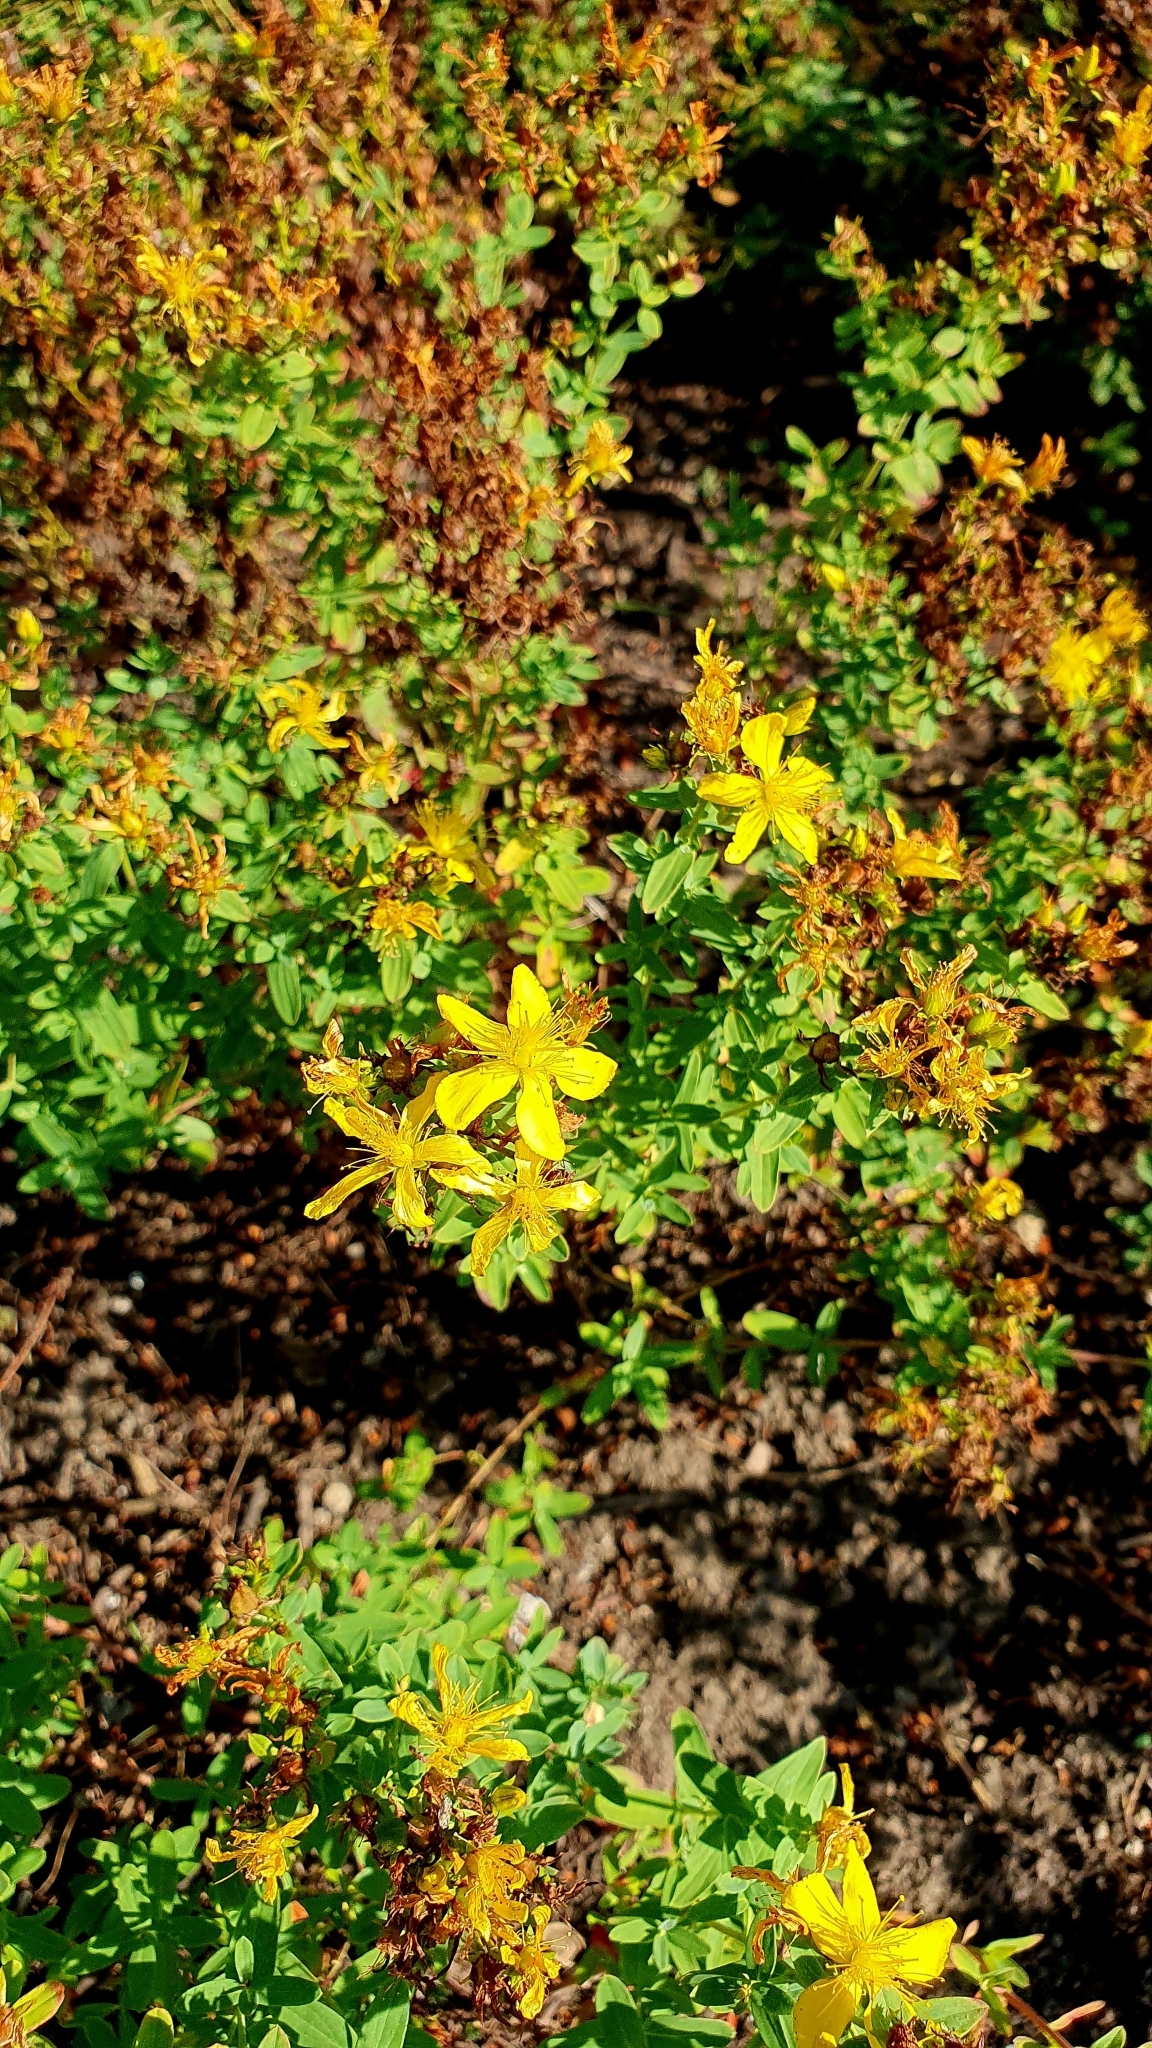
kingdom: Plantae
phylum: Tracheophyta
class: Magnoliopsida
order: Malpighiales
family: Hypericaceae
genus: Hypericum
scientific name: Hypericum perforatum
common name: Common st. johnswort
